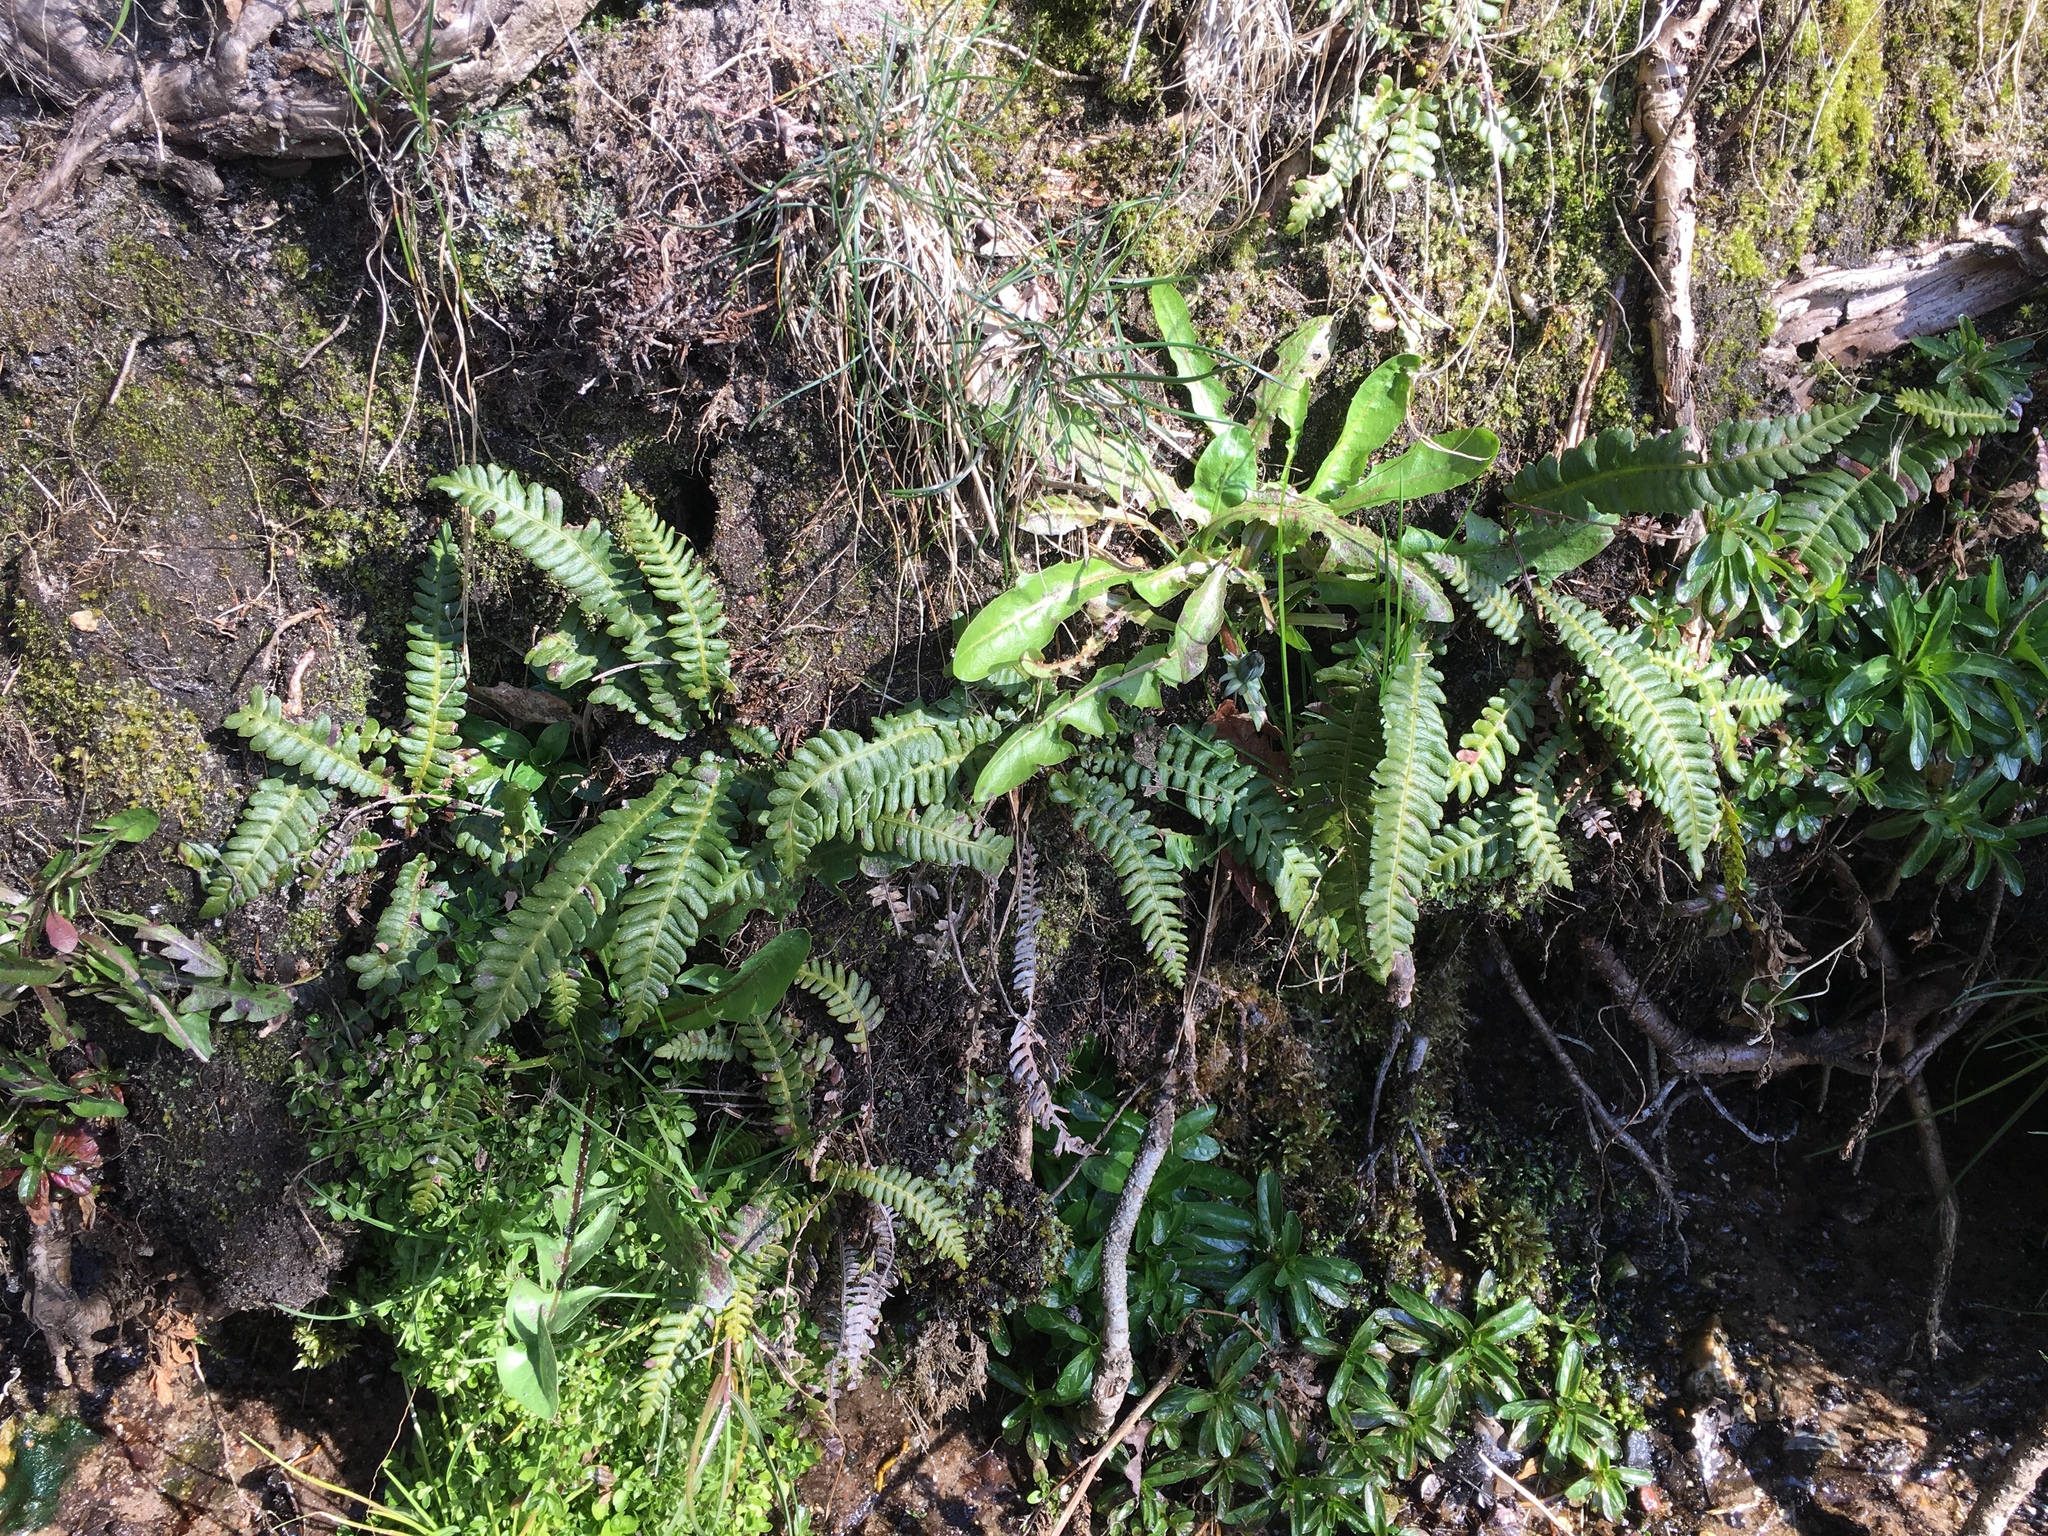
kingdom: Plantae
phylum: Tracheophyta
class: Polypodiopsida
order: Polypodiales
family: Blechnaceae
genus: Struthiopteris
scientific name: Struthiopteris spicant
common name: Deer fern
